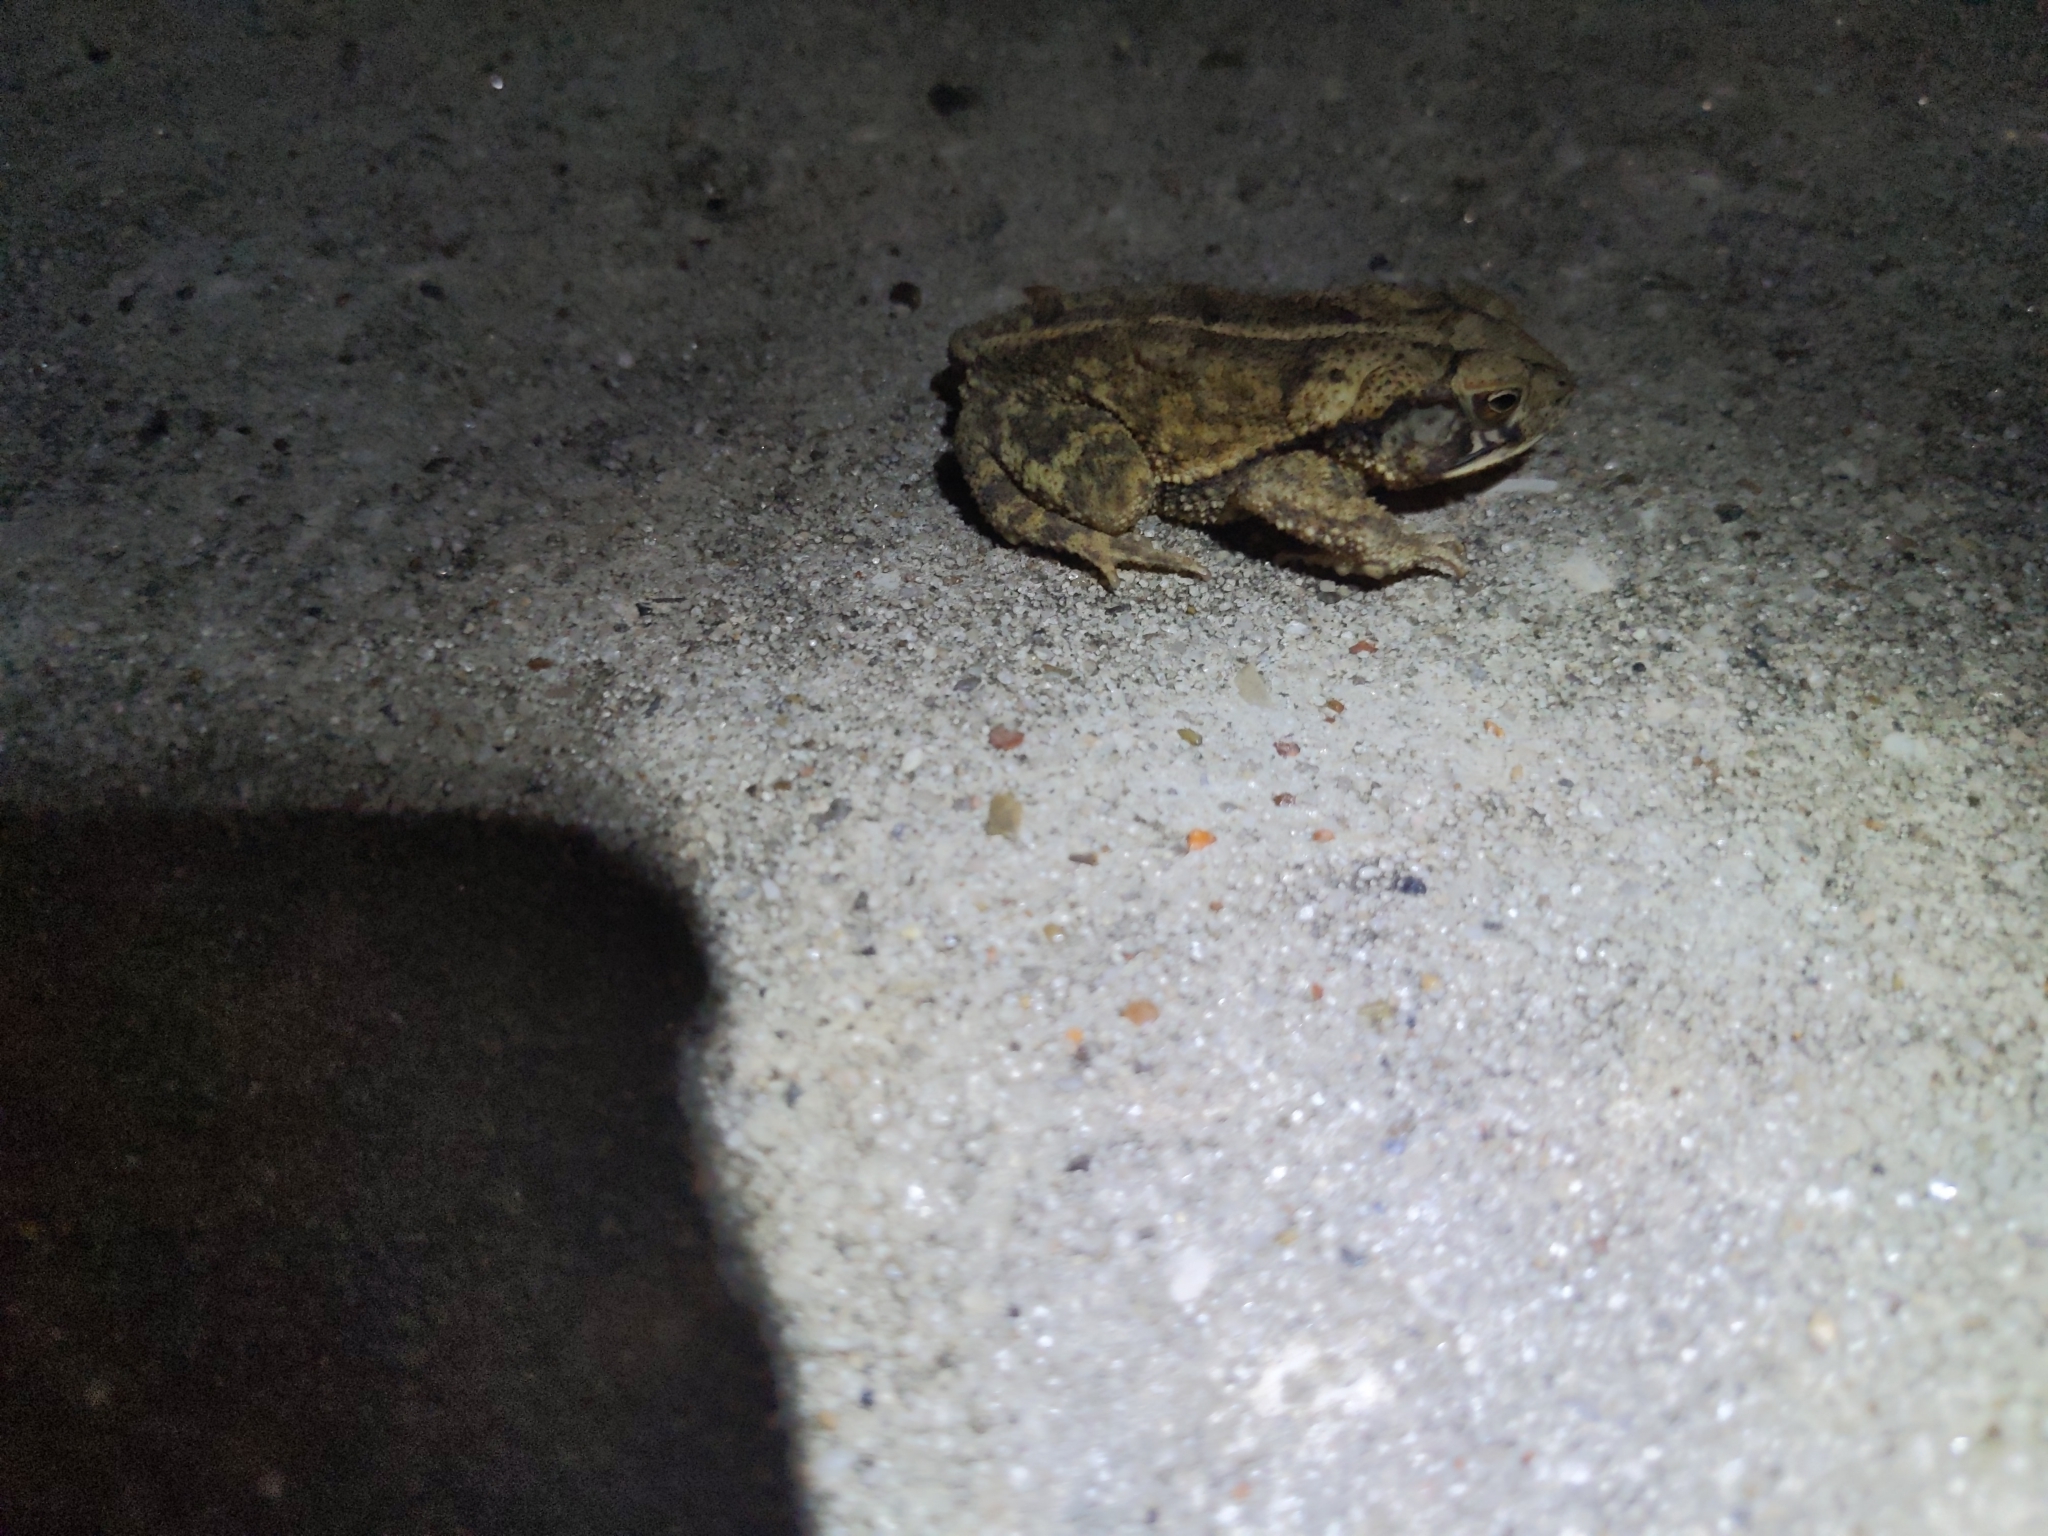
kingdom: Animalia
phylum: Chordata
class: Amphibia
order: Anura
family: Bufonidae
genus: Incilius
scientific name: Incilius nebulifer
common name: Gulf coast toad
